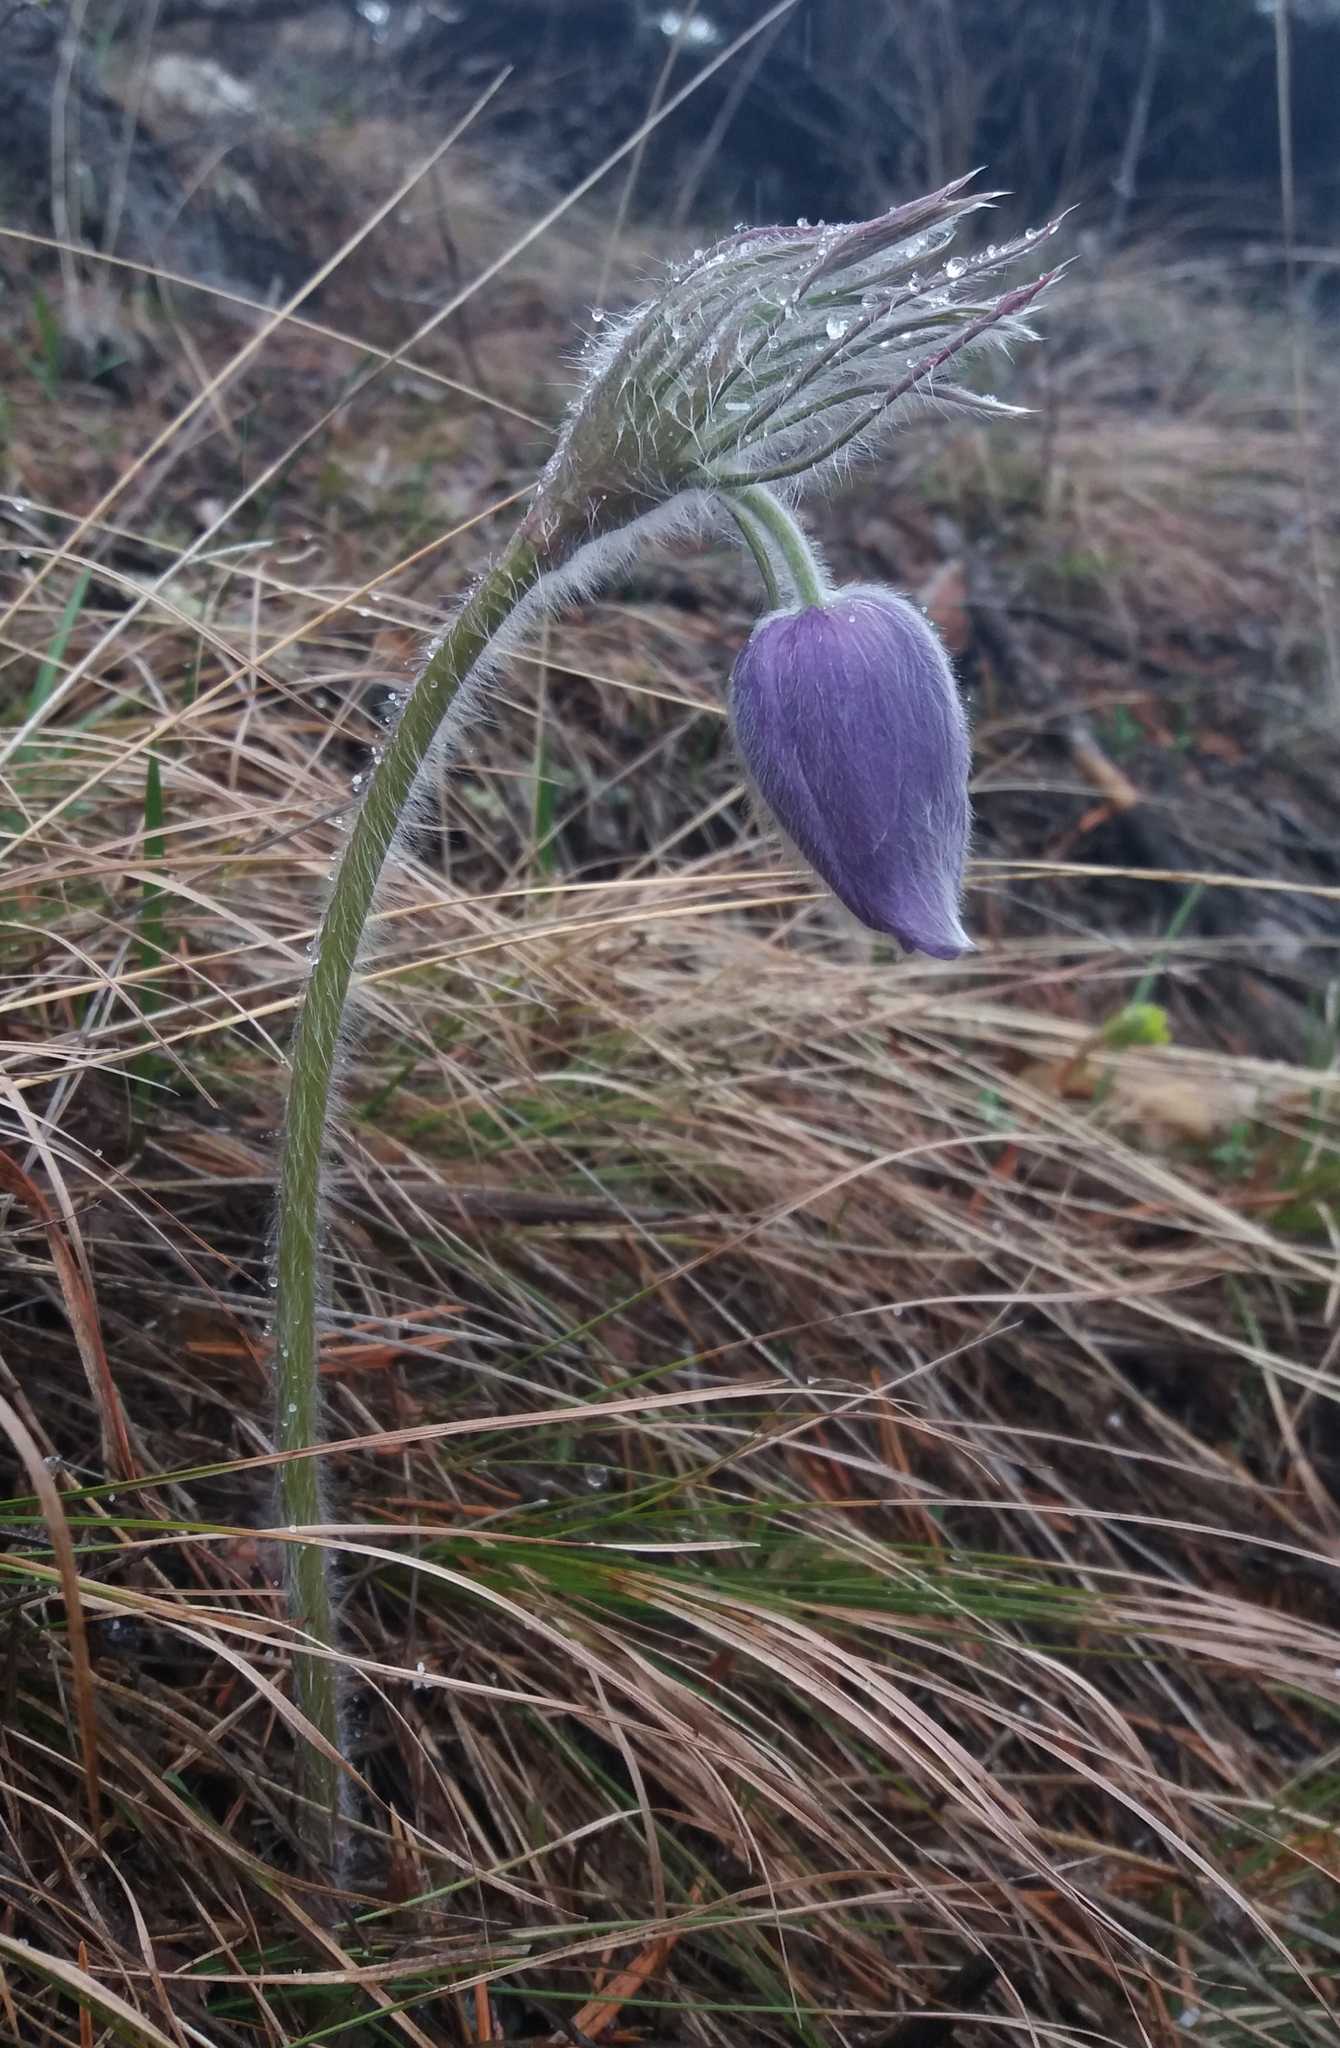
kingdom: Plantae
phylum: Tracheophyta
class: Magnoliopsida
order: Ranunculales
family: Ranunculaceae
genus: Pulsatilla
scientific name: Pulsatilla patens
